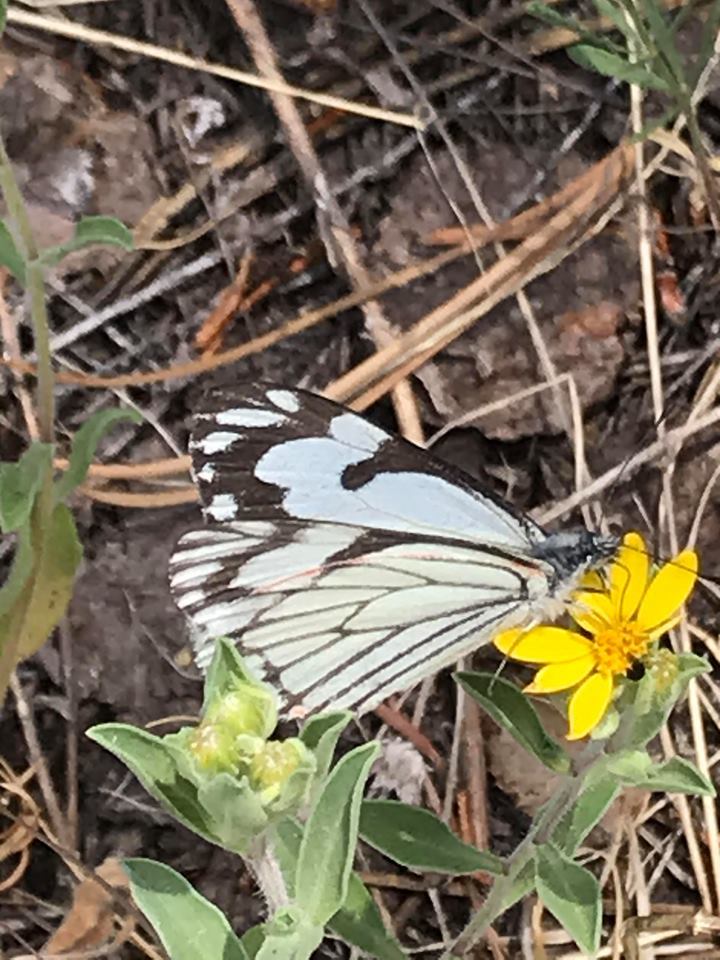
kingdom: Animalia
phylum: Arthropoda
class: Insecta
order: Lepidoptera
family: Pieridae
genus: Neophasia
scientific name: Neophasia menapia
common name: Pine white
